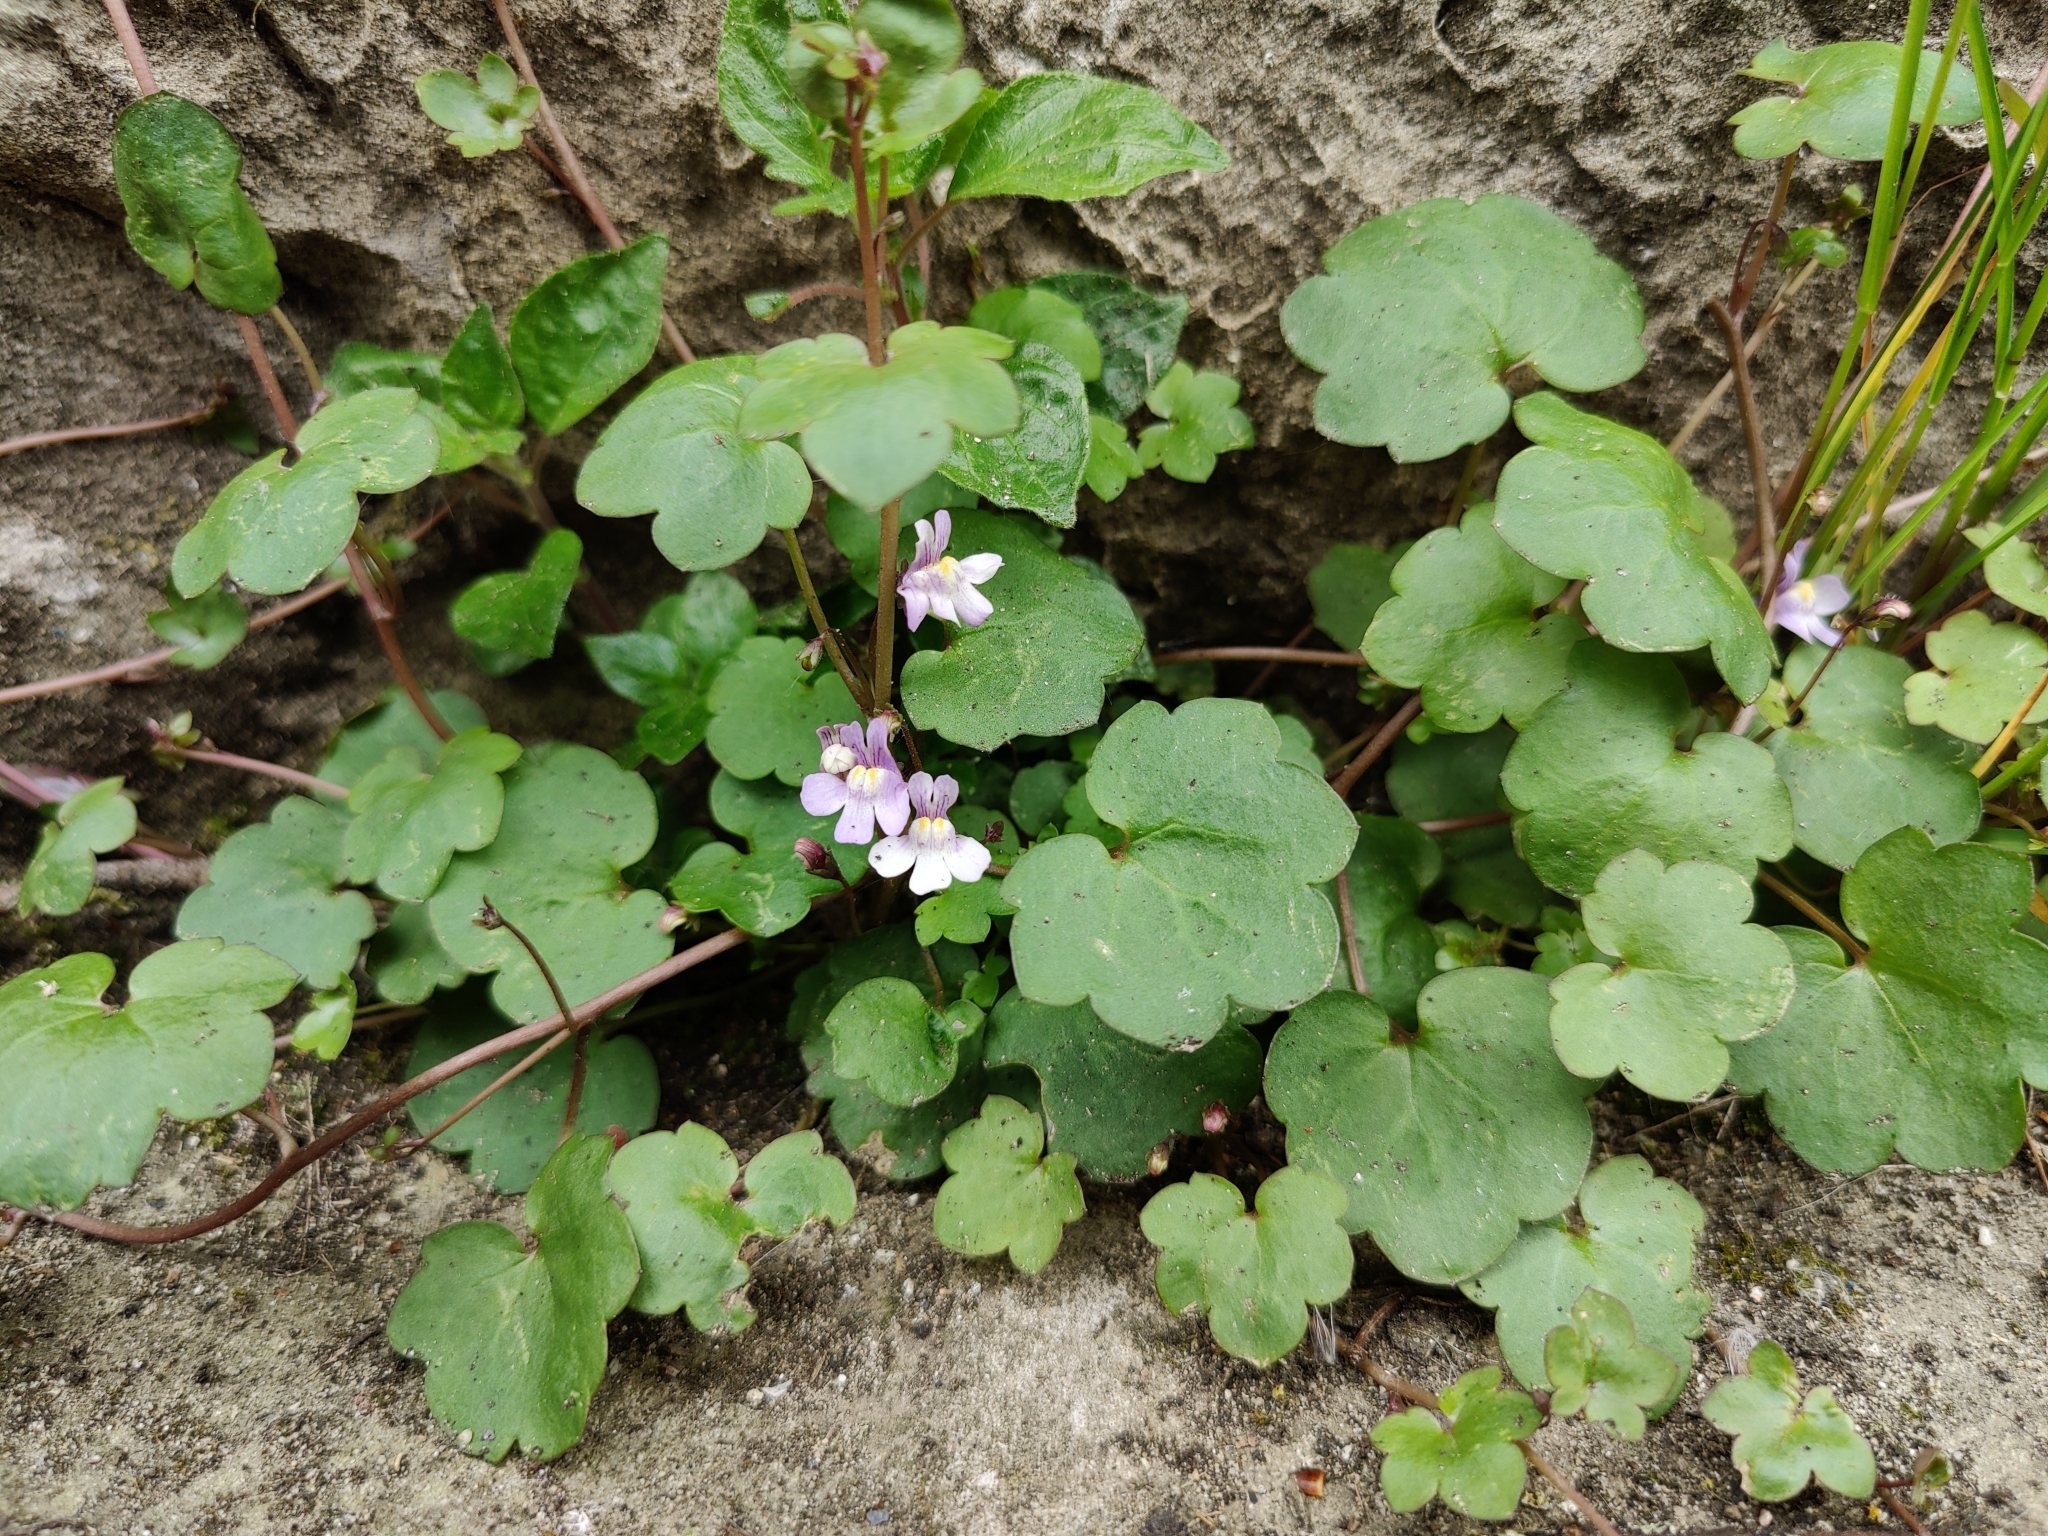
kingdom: Plantae
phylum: Tracheophyta
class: Magnoliopsida
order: Lamiales
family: Plantaginaceae
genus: Cymbalaria
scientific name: Cymbalaria muralis
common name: Ivy-leaved toadflax
